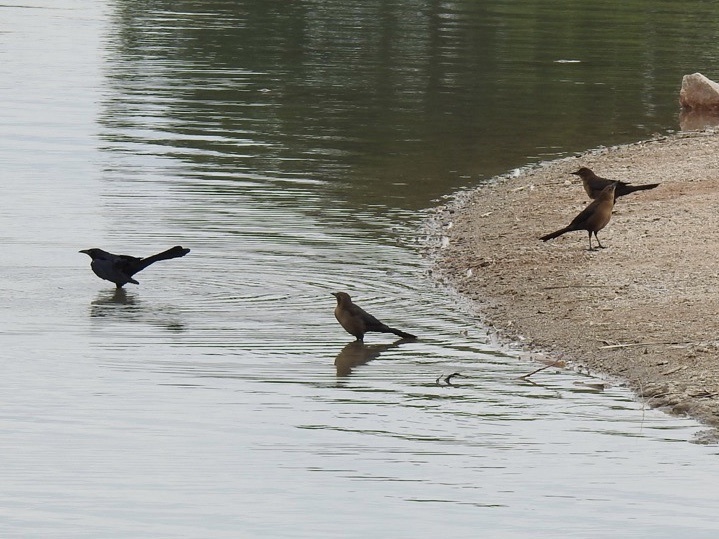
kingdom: Animalia
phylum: Chordata
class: Aves
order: Passeriformes
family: Icteridae
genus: Quiscalus
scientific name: Quiscalus mexicanus
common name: Great-tailed grackle
